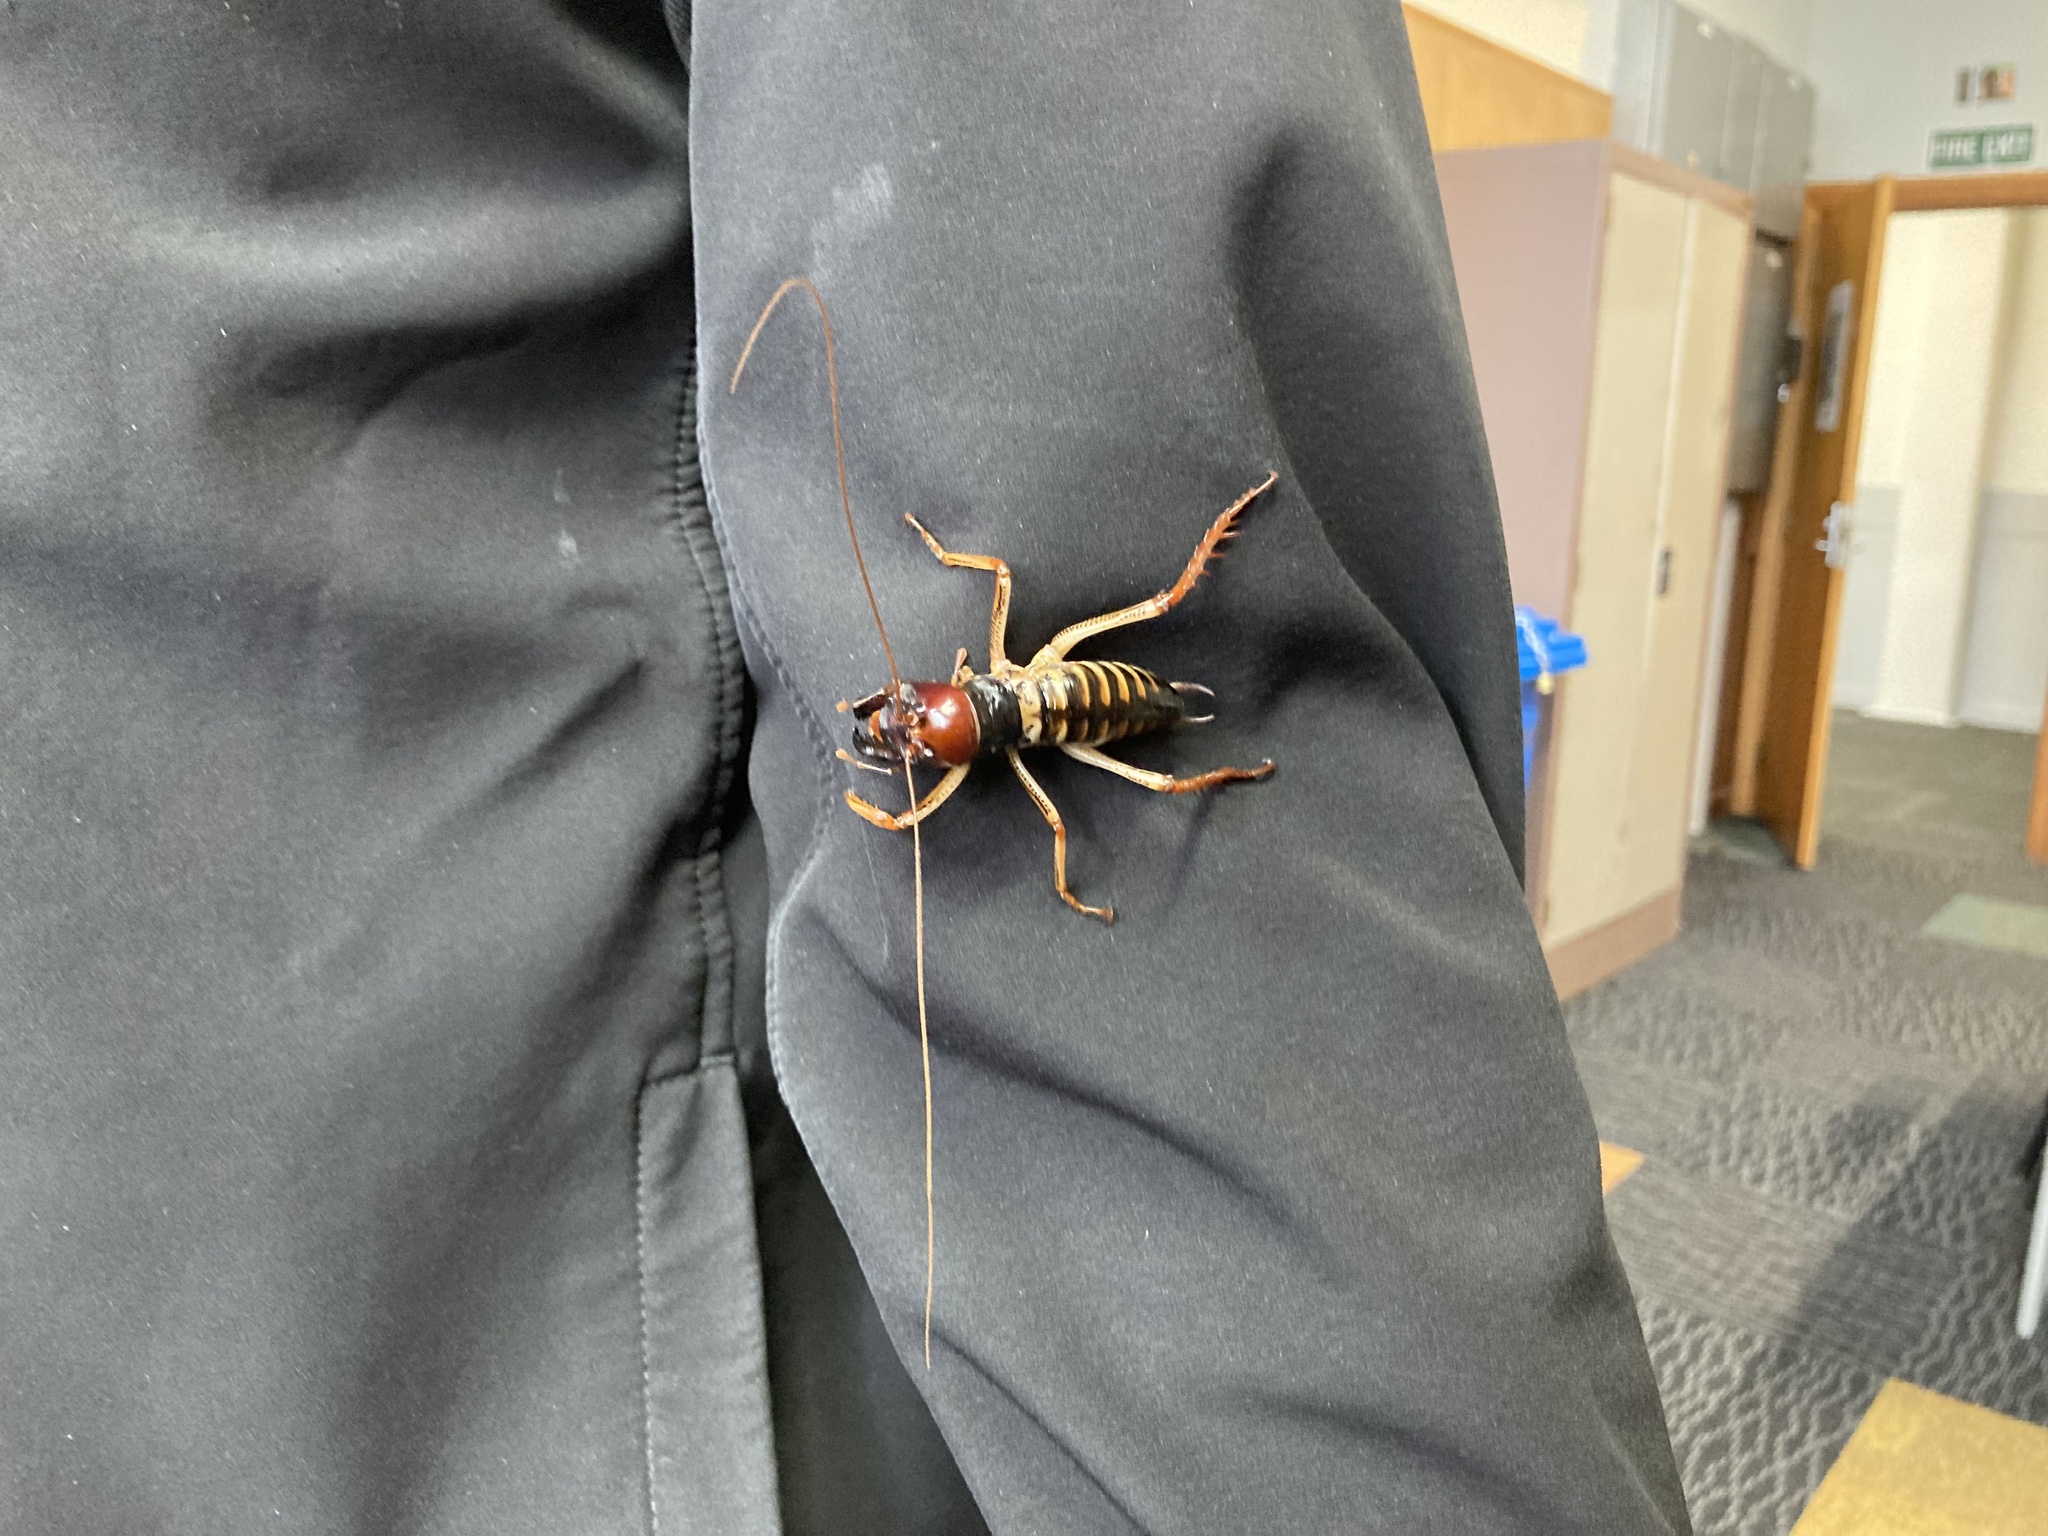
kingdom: Animalia
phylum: Arthropoda
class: Insecta
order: Orthoptera
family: Anostostomatidae
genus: Hemideina
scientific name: Hemideina crassidens
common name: Wellington tree weta
